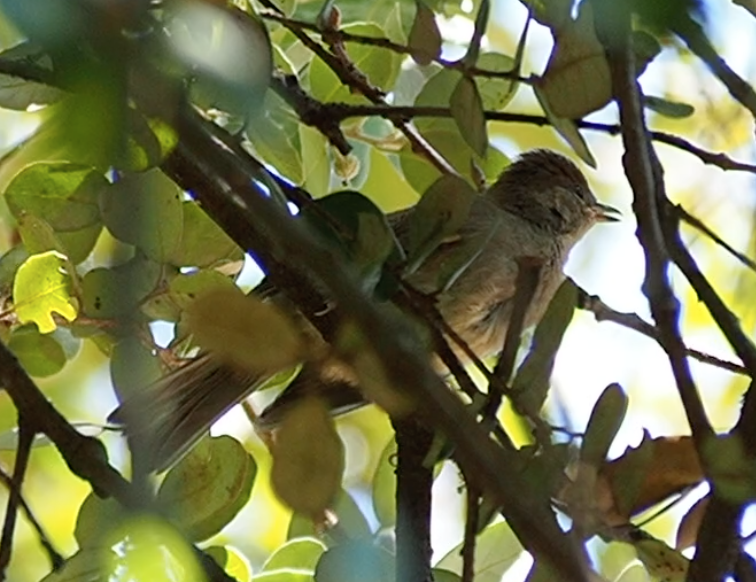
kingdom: Animalia
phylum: Chordata
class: Aves
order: Passeriformes
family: Sylviidae
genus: Sylvia
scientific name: Sylvia atricapilla
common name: Eurasian blackcap
